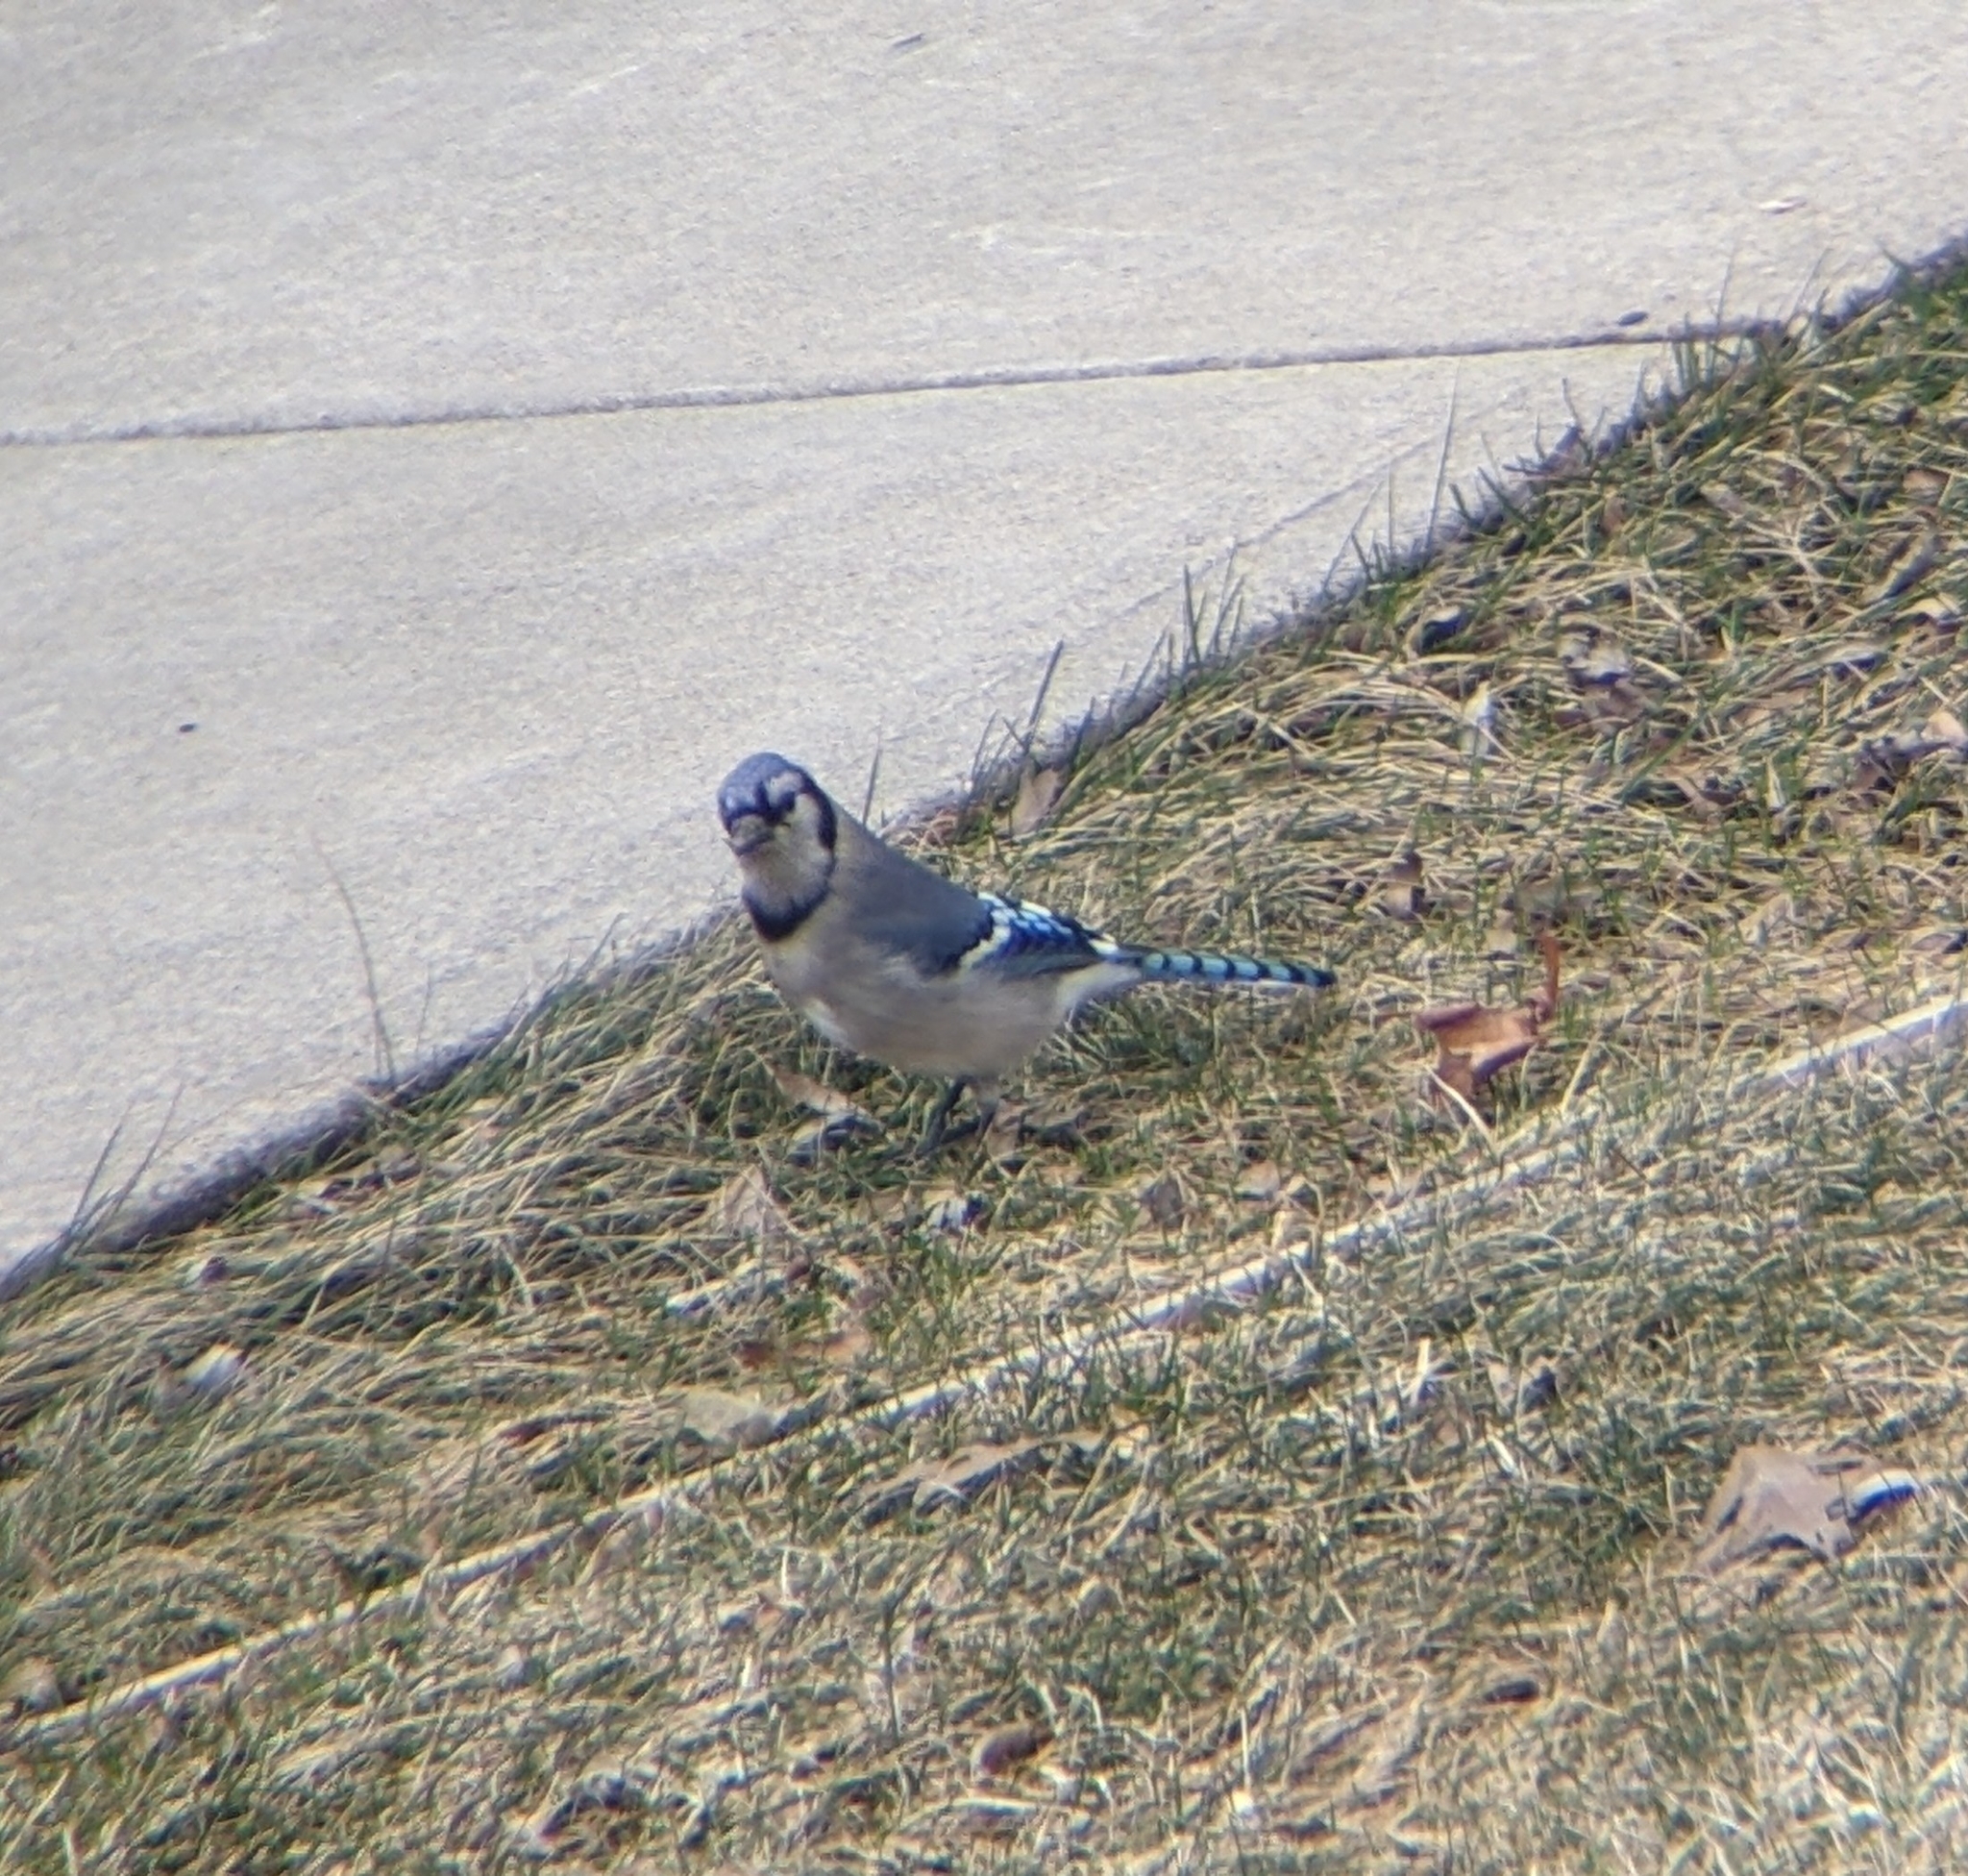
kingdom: Animalia
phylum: Chordata
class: Aves
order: Passeriformes
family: Corvidae
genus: Cyanocitta
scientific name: Cyanocitta cristata
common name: Blue jay
